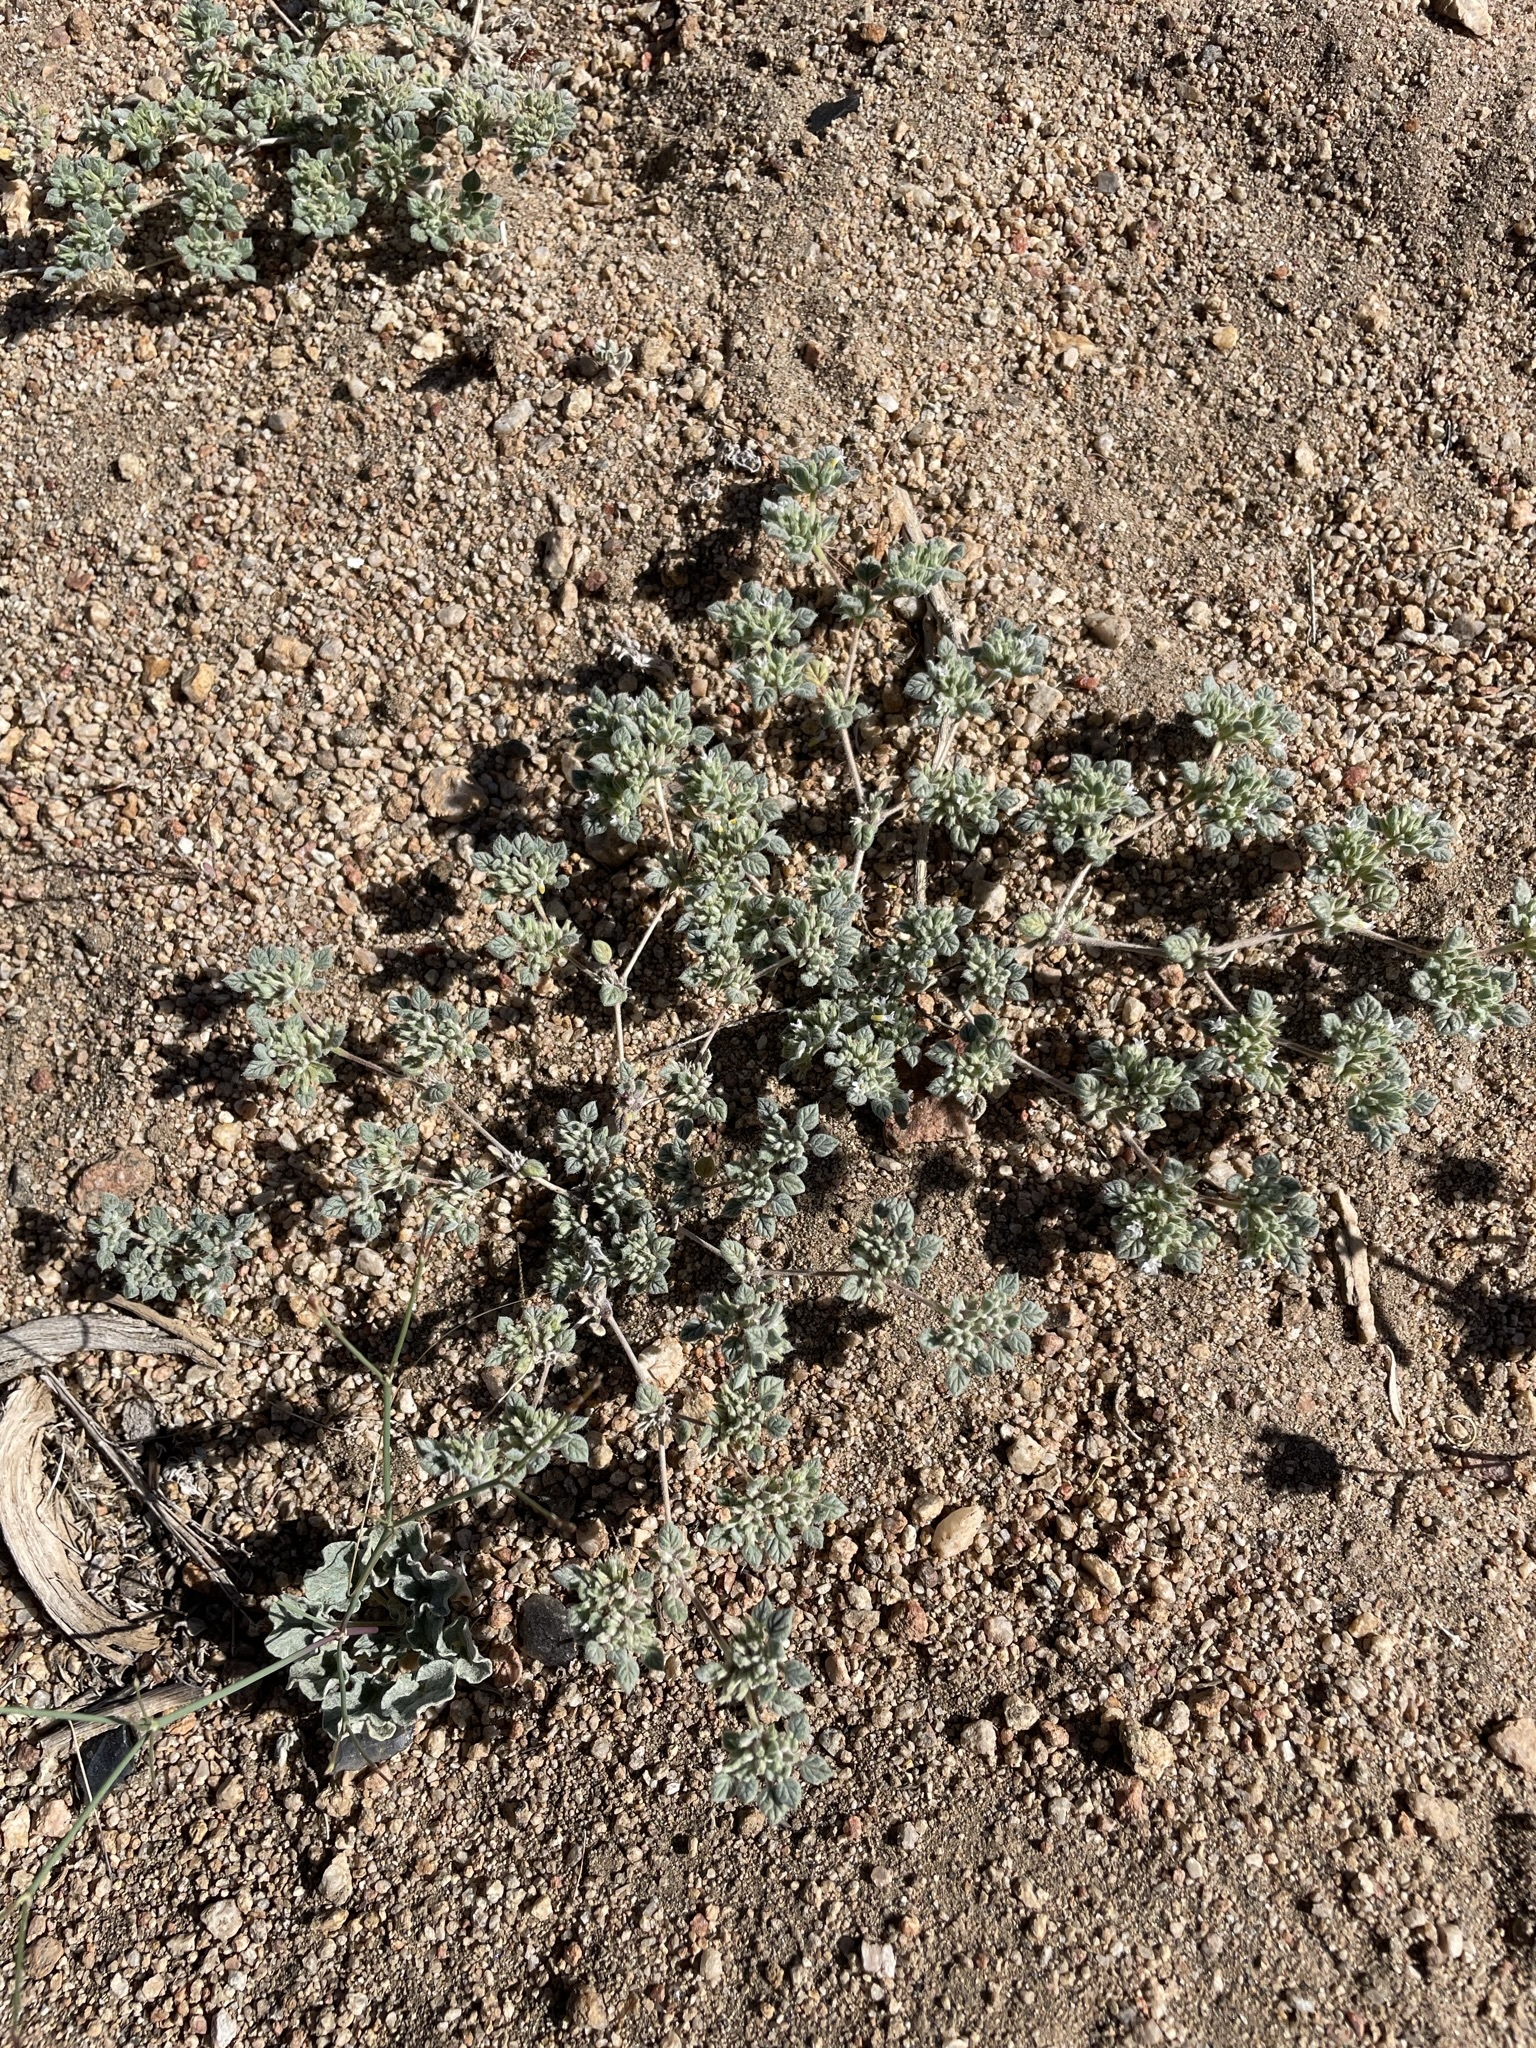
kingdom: Plantae
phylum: Tracheophyta
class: Magnoliopsida
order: Boraginales
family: Ehretiaceae
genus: Tiquilia
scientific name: Tiquilia nuttallii
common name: Rosette tiquilia
